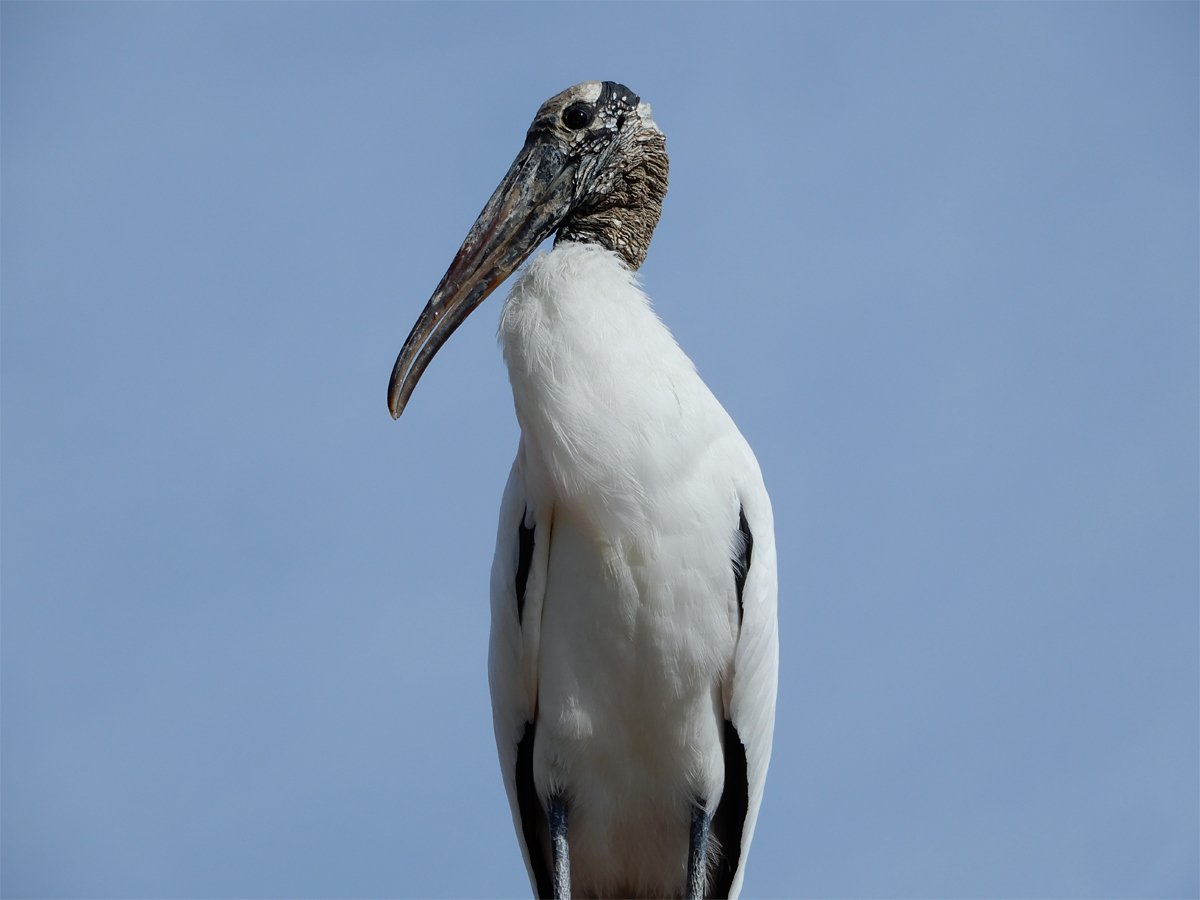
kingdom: Animalia
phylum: Chordata
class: Aves
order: Ciconiiformes
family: Ciconiidae
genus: Mycteria
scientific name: Mycteria americana
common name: Wood stork
